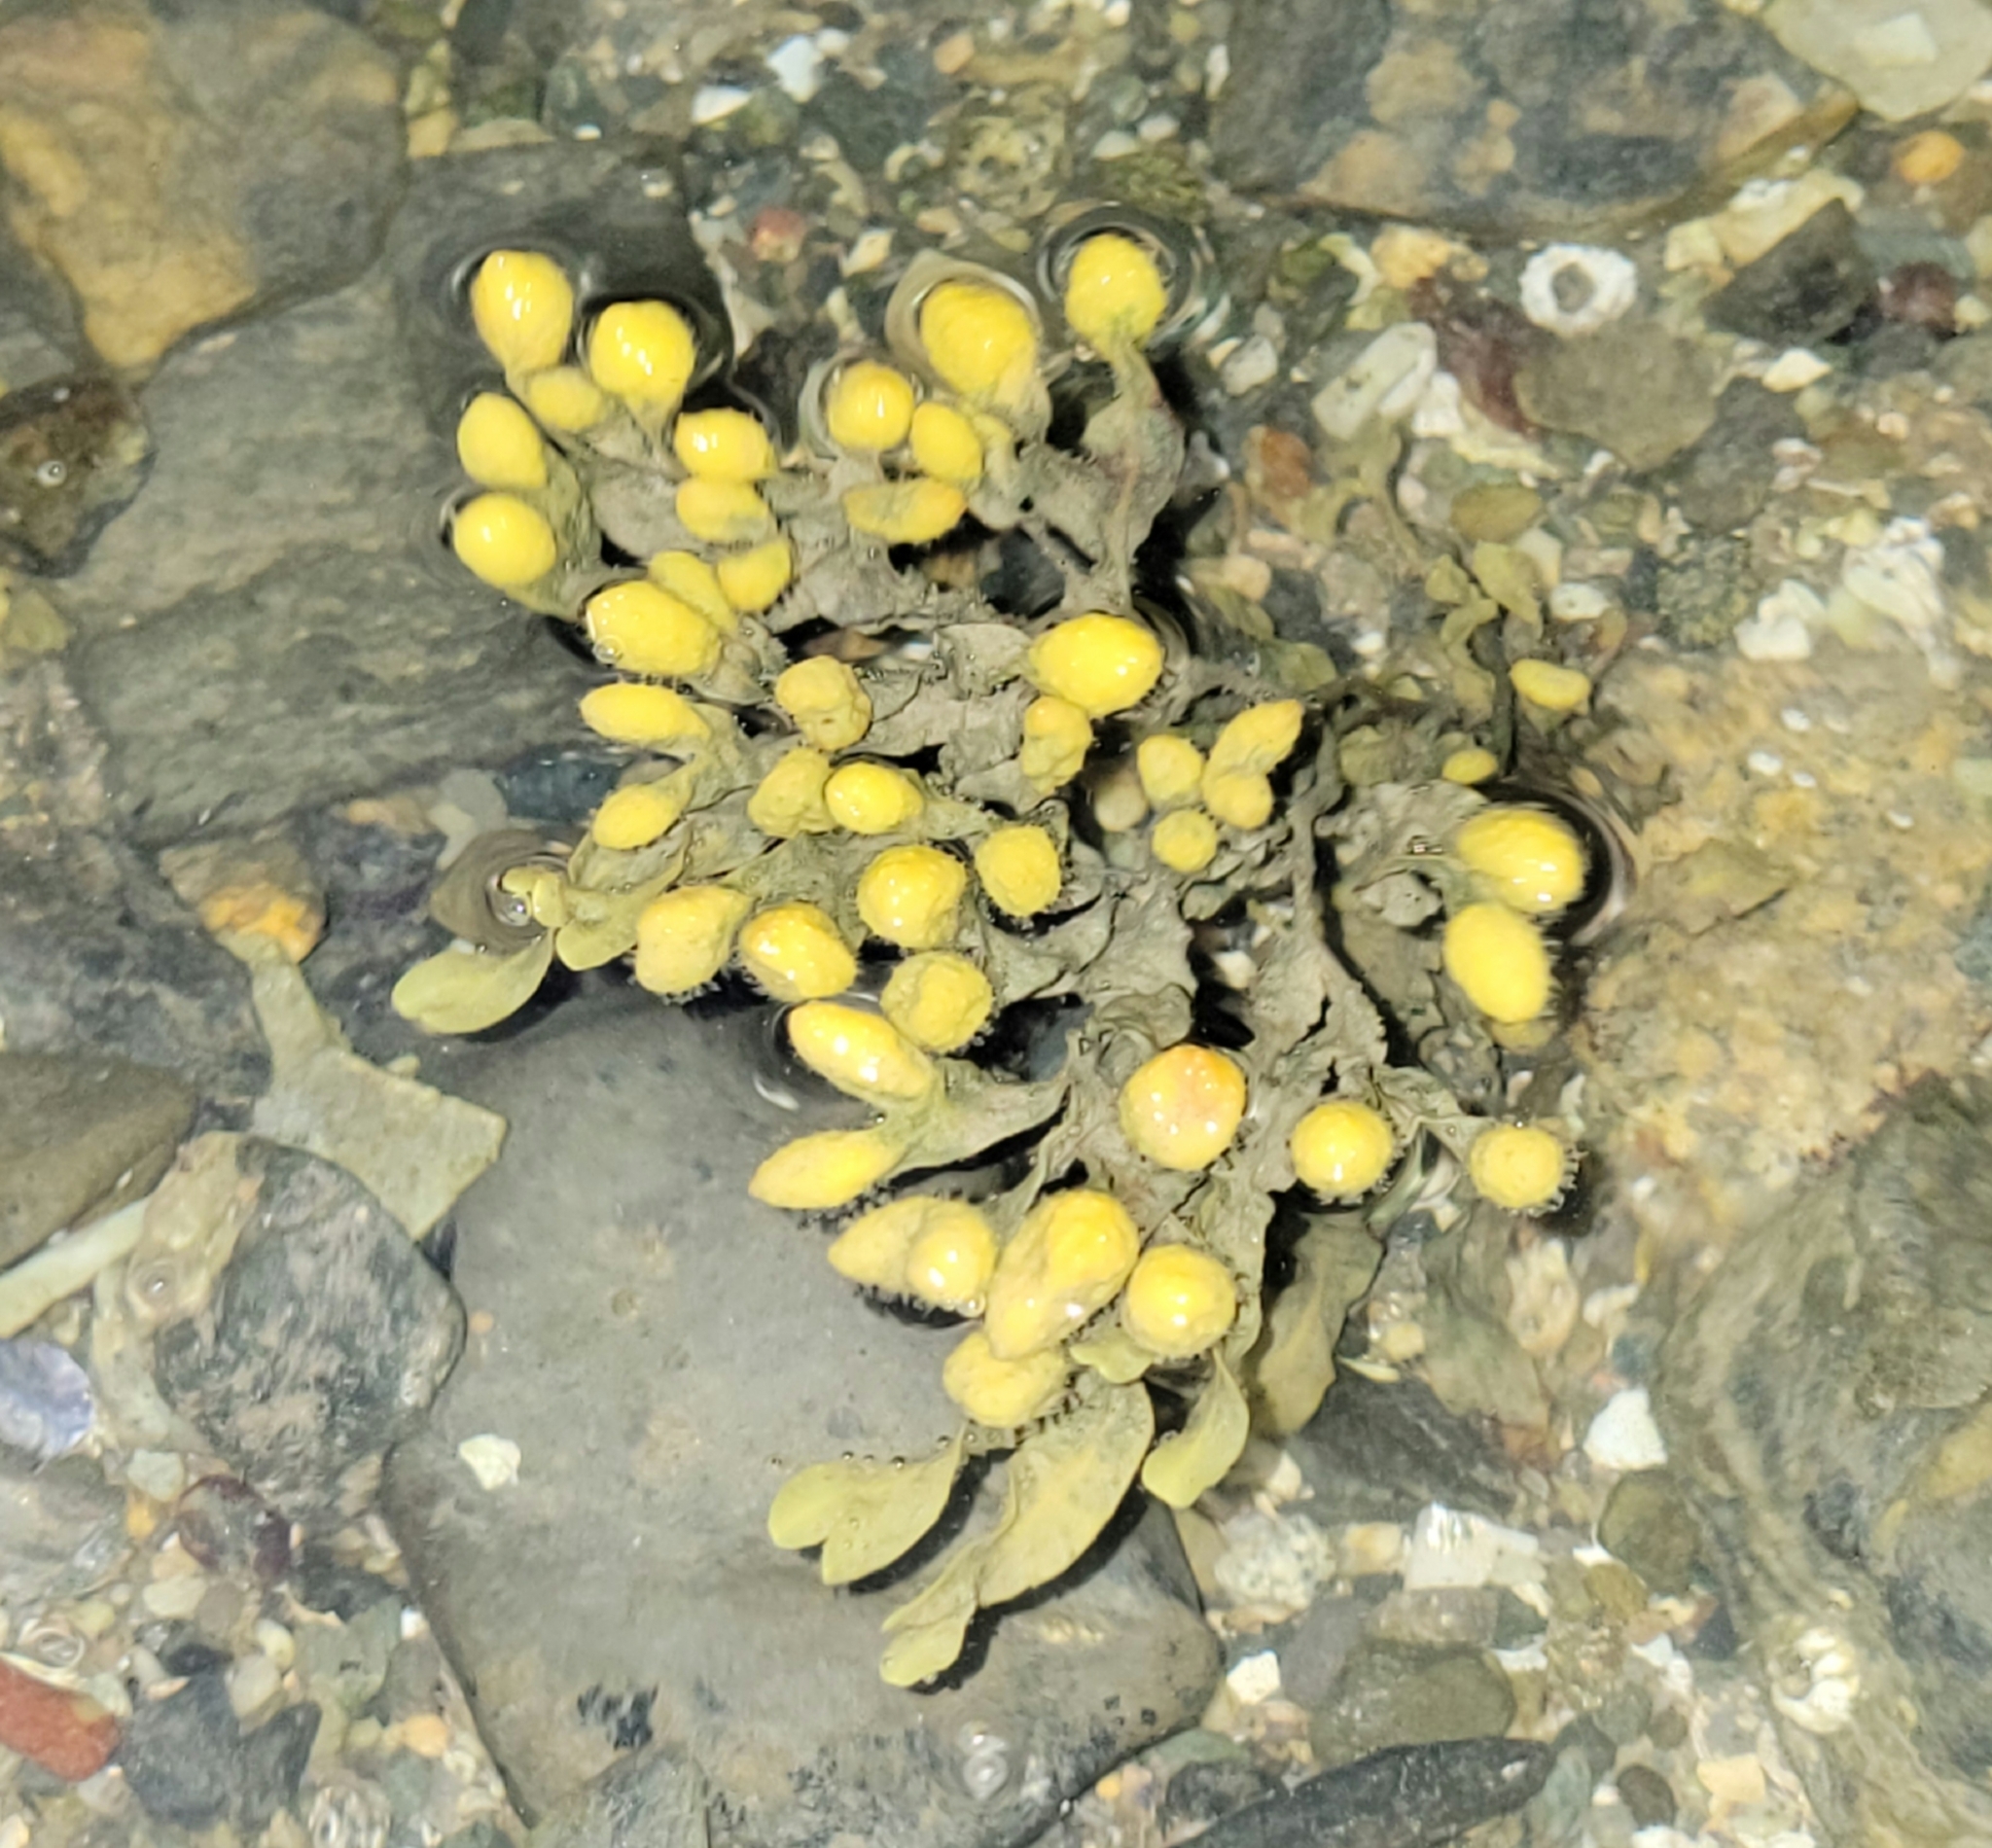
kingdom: Chromista
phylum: Ochrophyta
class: Phaeophyceae
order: Fucales
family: Fucaceae
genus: Fucus
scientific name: Fucus spiralis
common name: Spiral wrack
